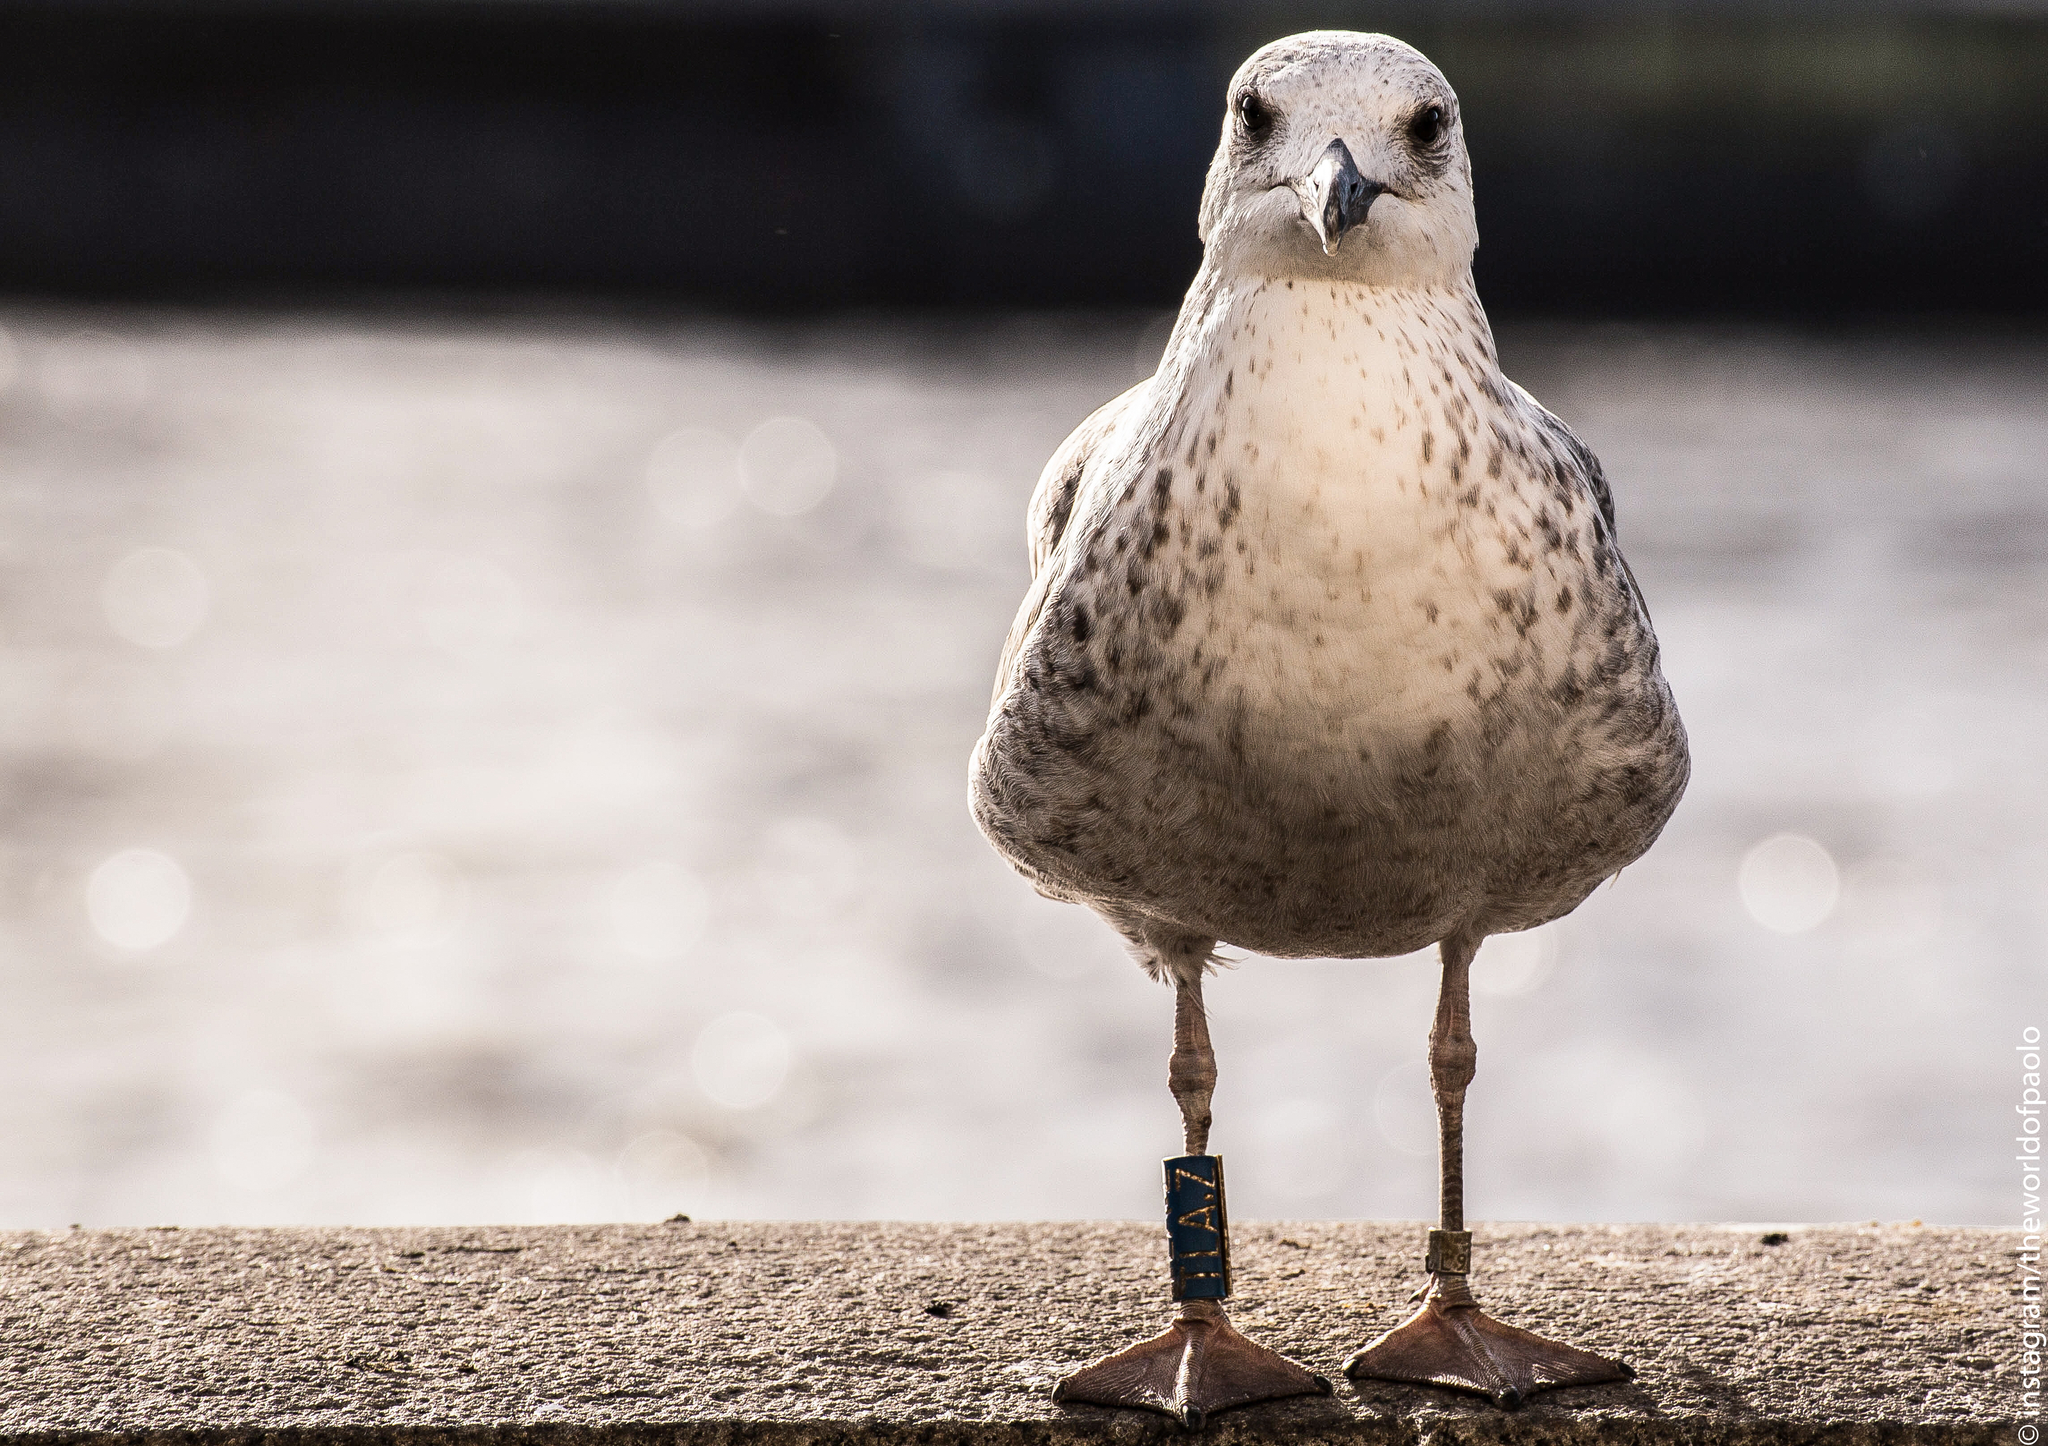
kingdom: Animalia
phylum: Chordata
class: Aves
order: Charadriiformes
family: Laridae
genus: Larus
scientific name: Larus fuscus
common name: Lesser black-backed gull
